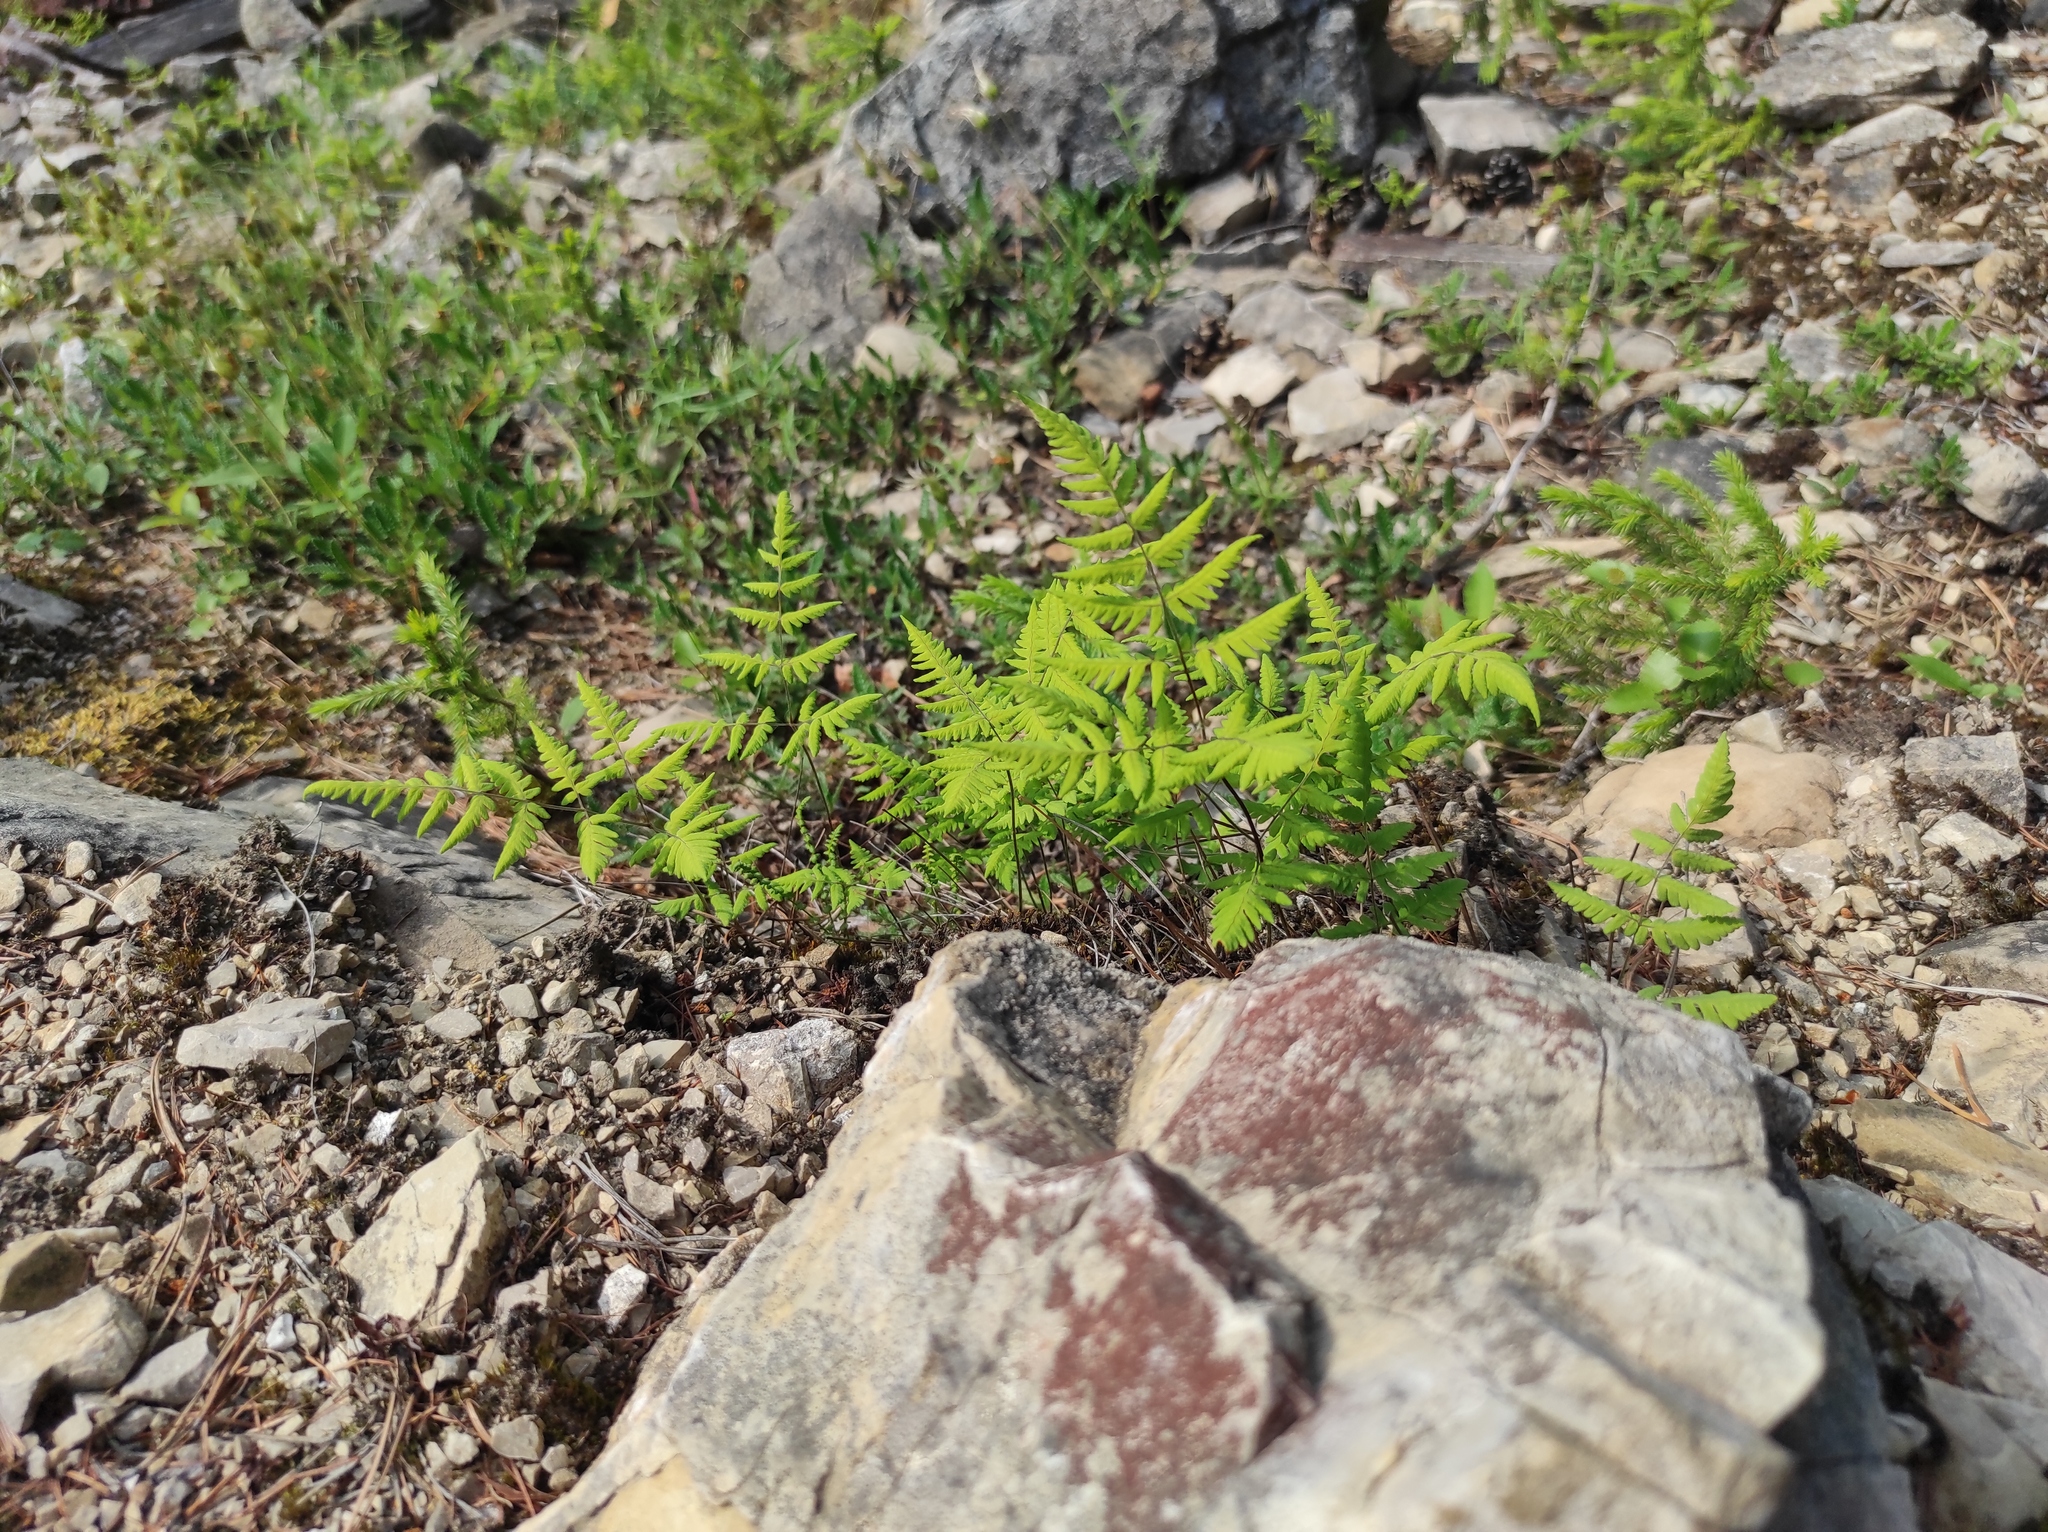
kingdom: Plantae
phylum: Tracheophyta
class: Polypodiopsida
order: Polypodiales
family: Cystopteridaceae
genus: Gymnocarpium
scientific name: Gymnocarpium jessoense
